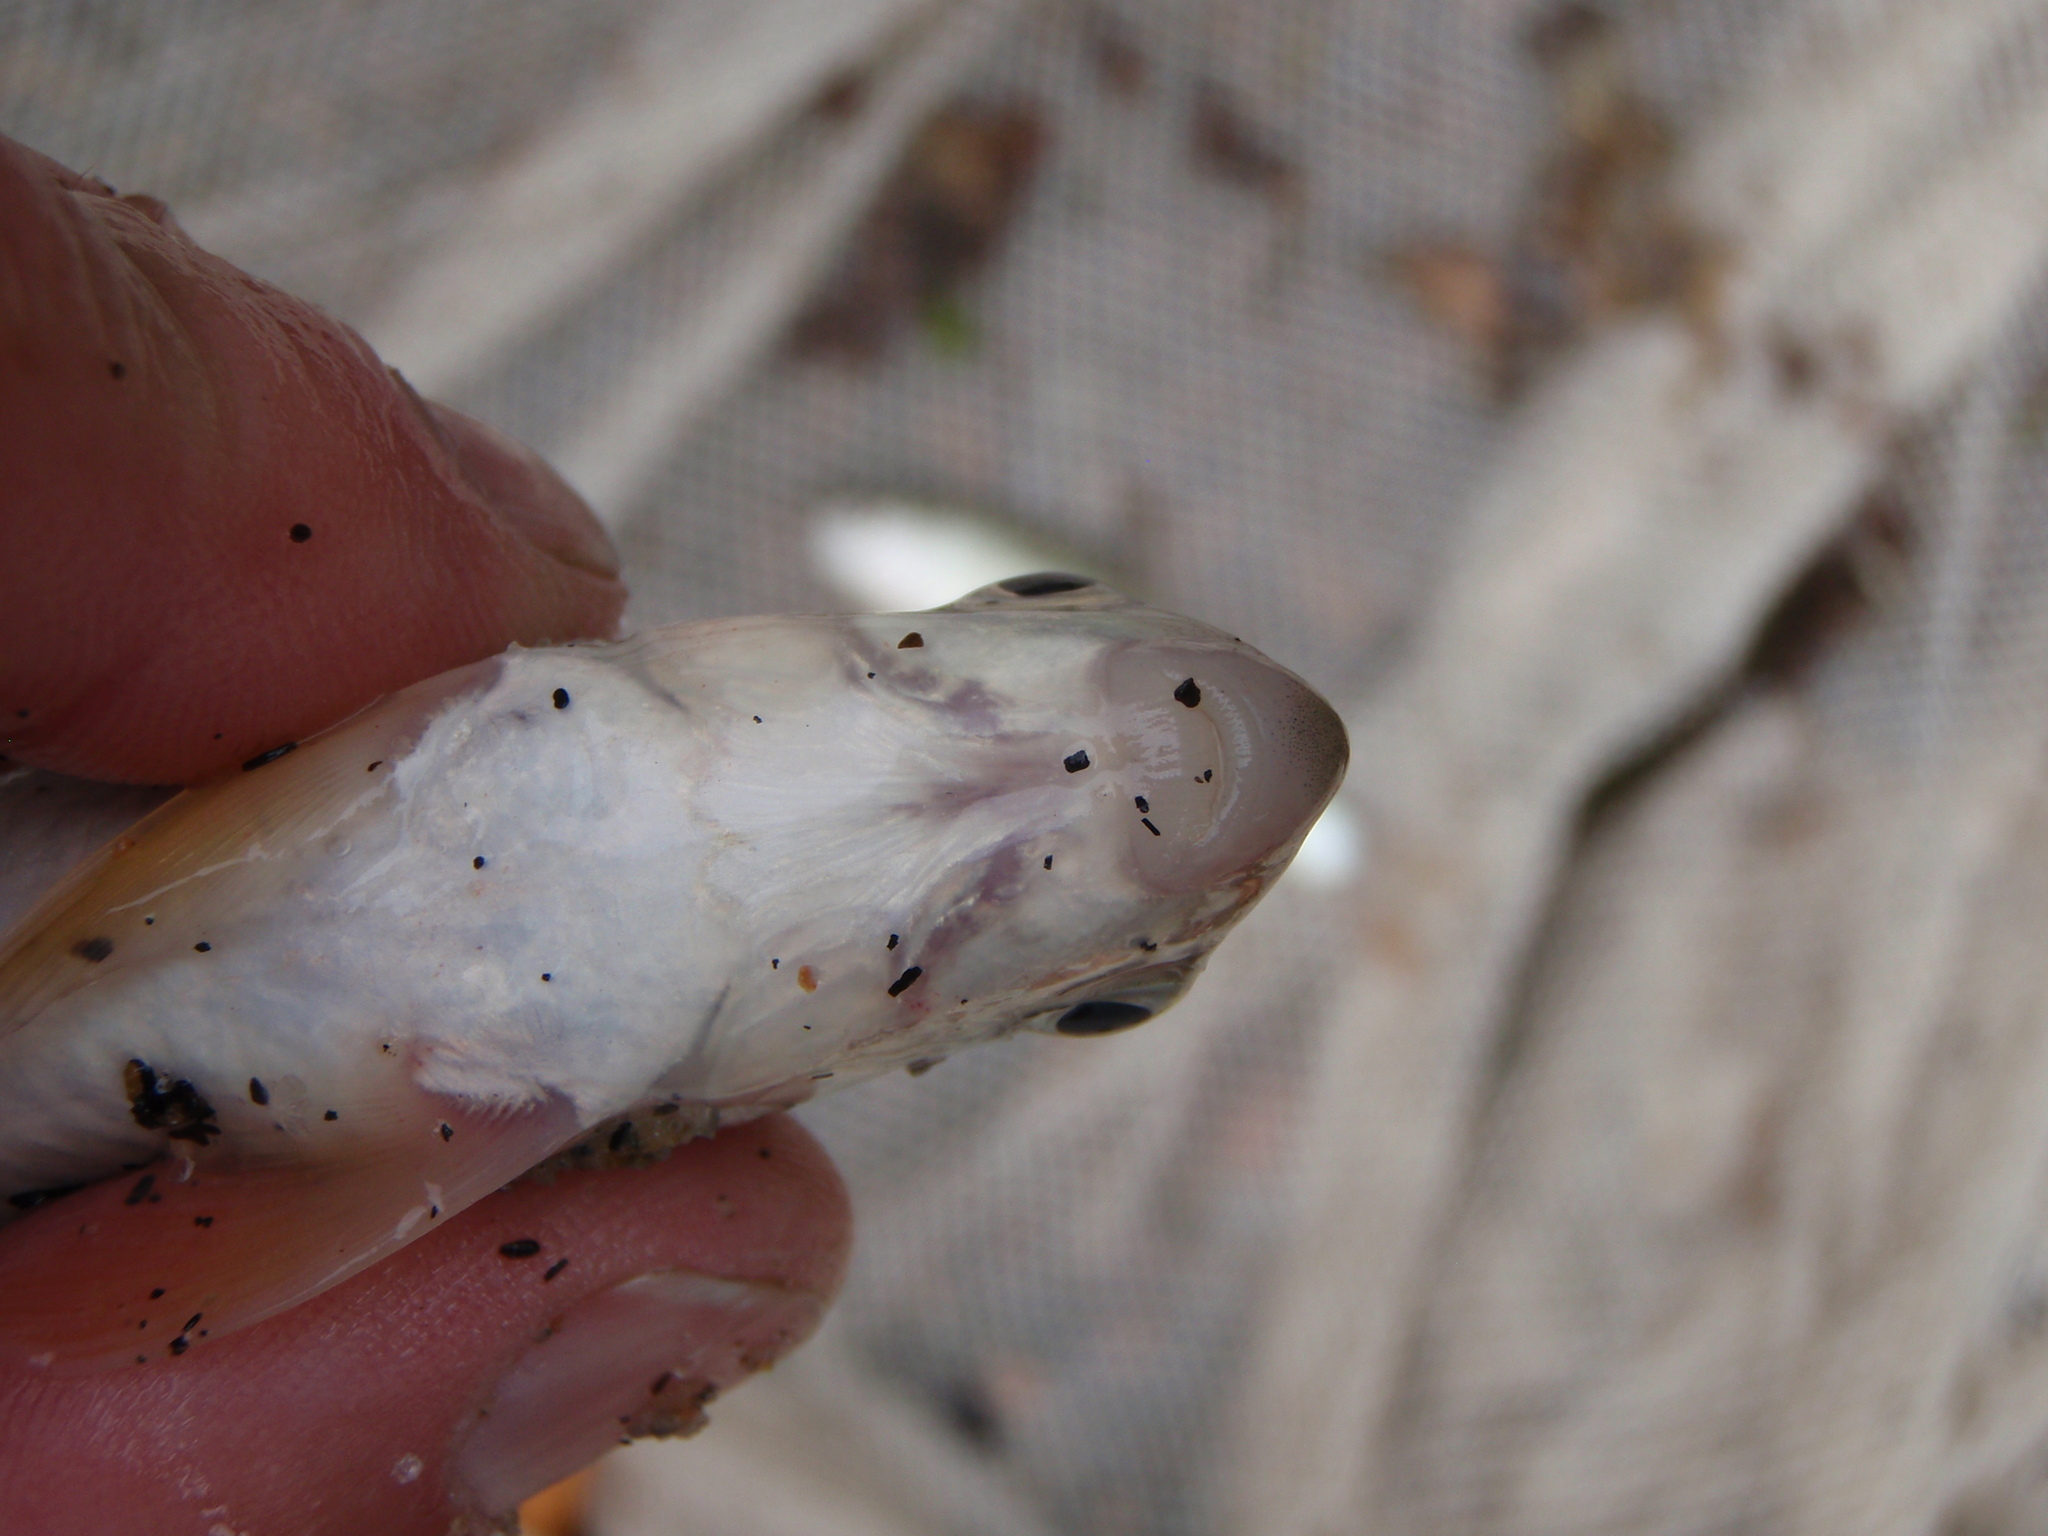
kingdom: Animalia
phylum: Chordata
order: Cypriniformes
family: Catostomidae
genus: Moxostoma
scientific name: Moxostoma macrolepidotum
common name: Shorthead redhorse
